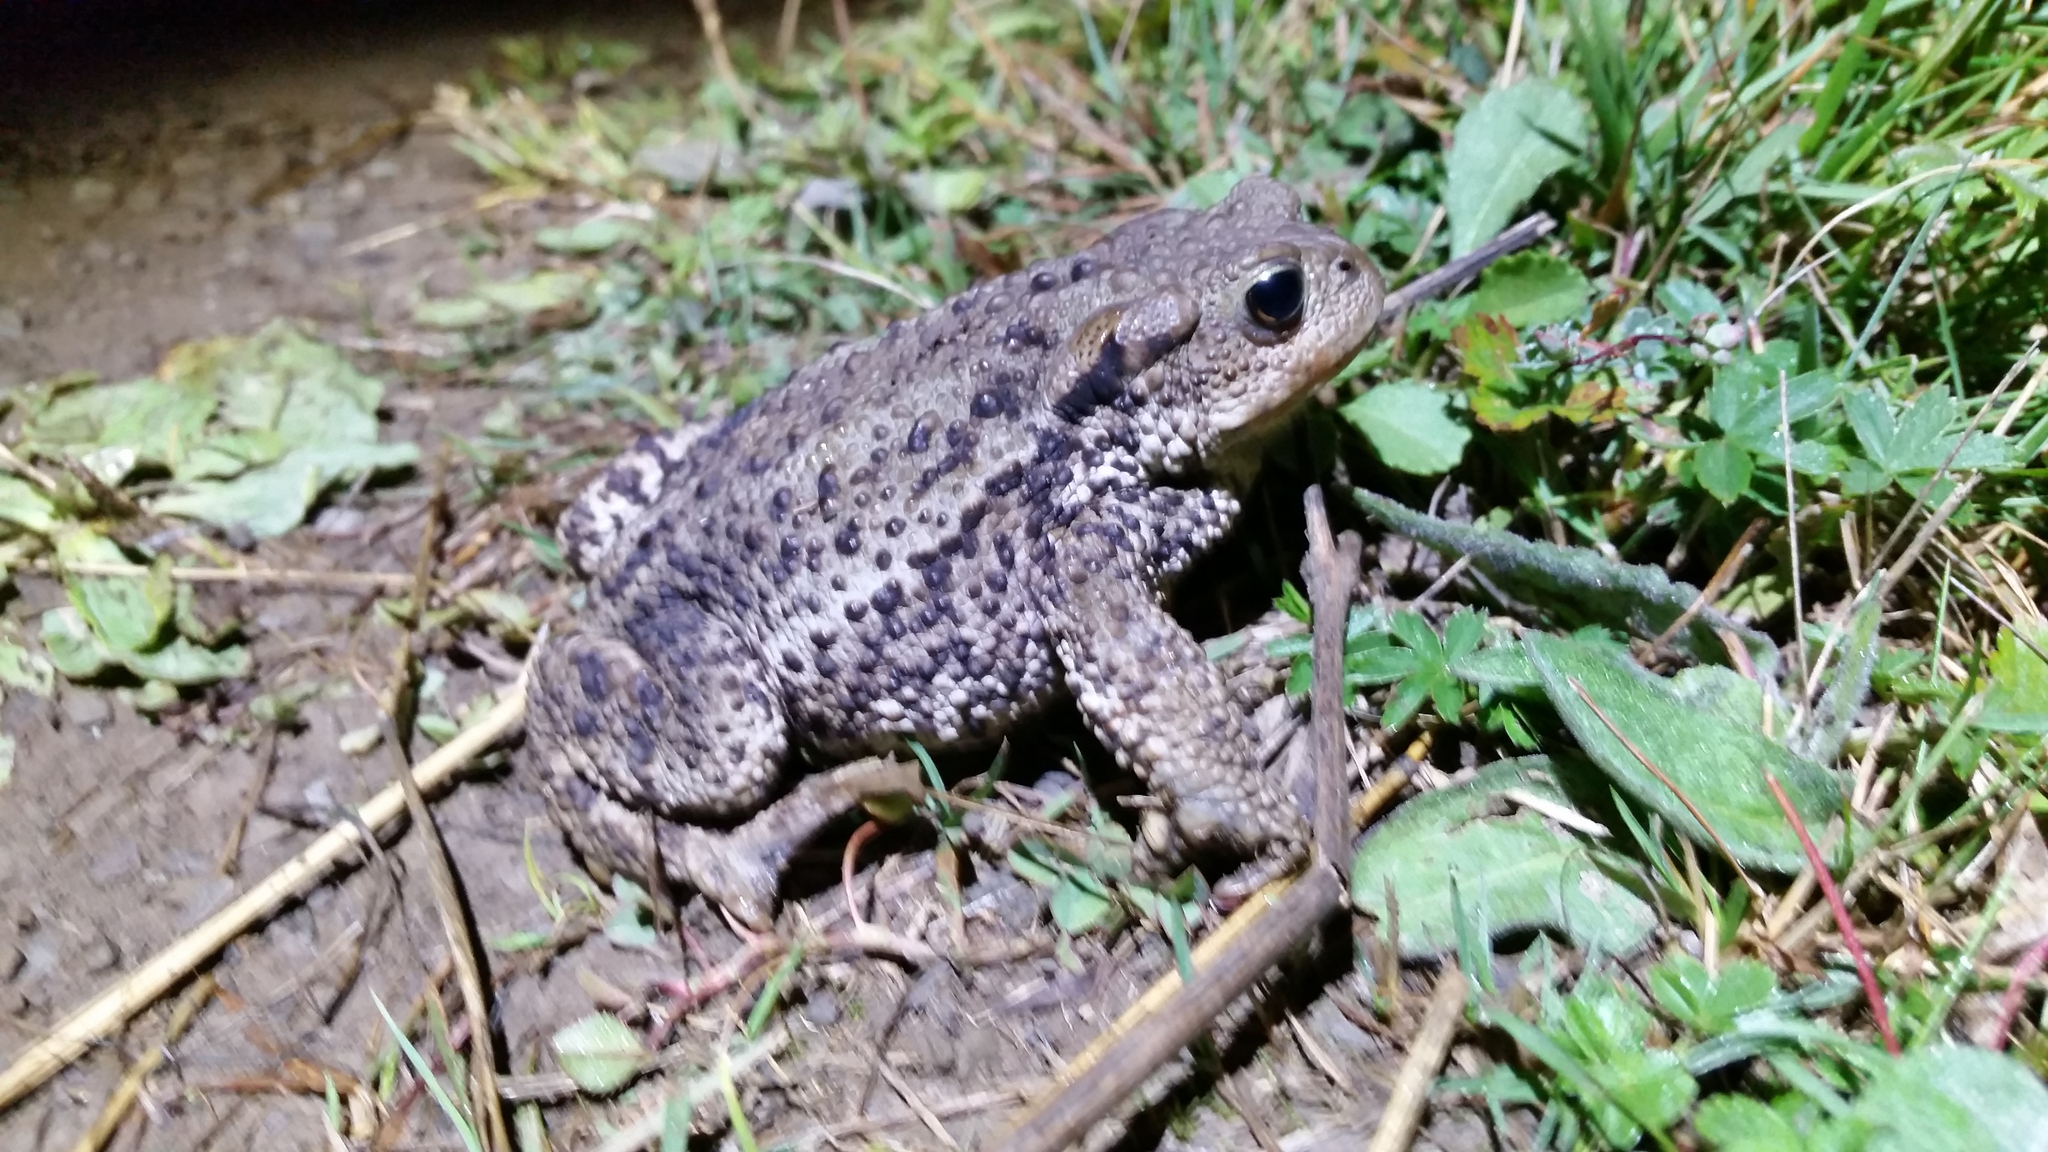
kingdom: Animalia
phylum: Chordata
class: Amphibia
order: Anura
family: Bufonidae
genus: Bufo
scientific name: Bufo bufo
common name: Common toad
